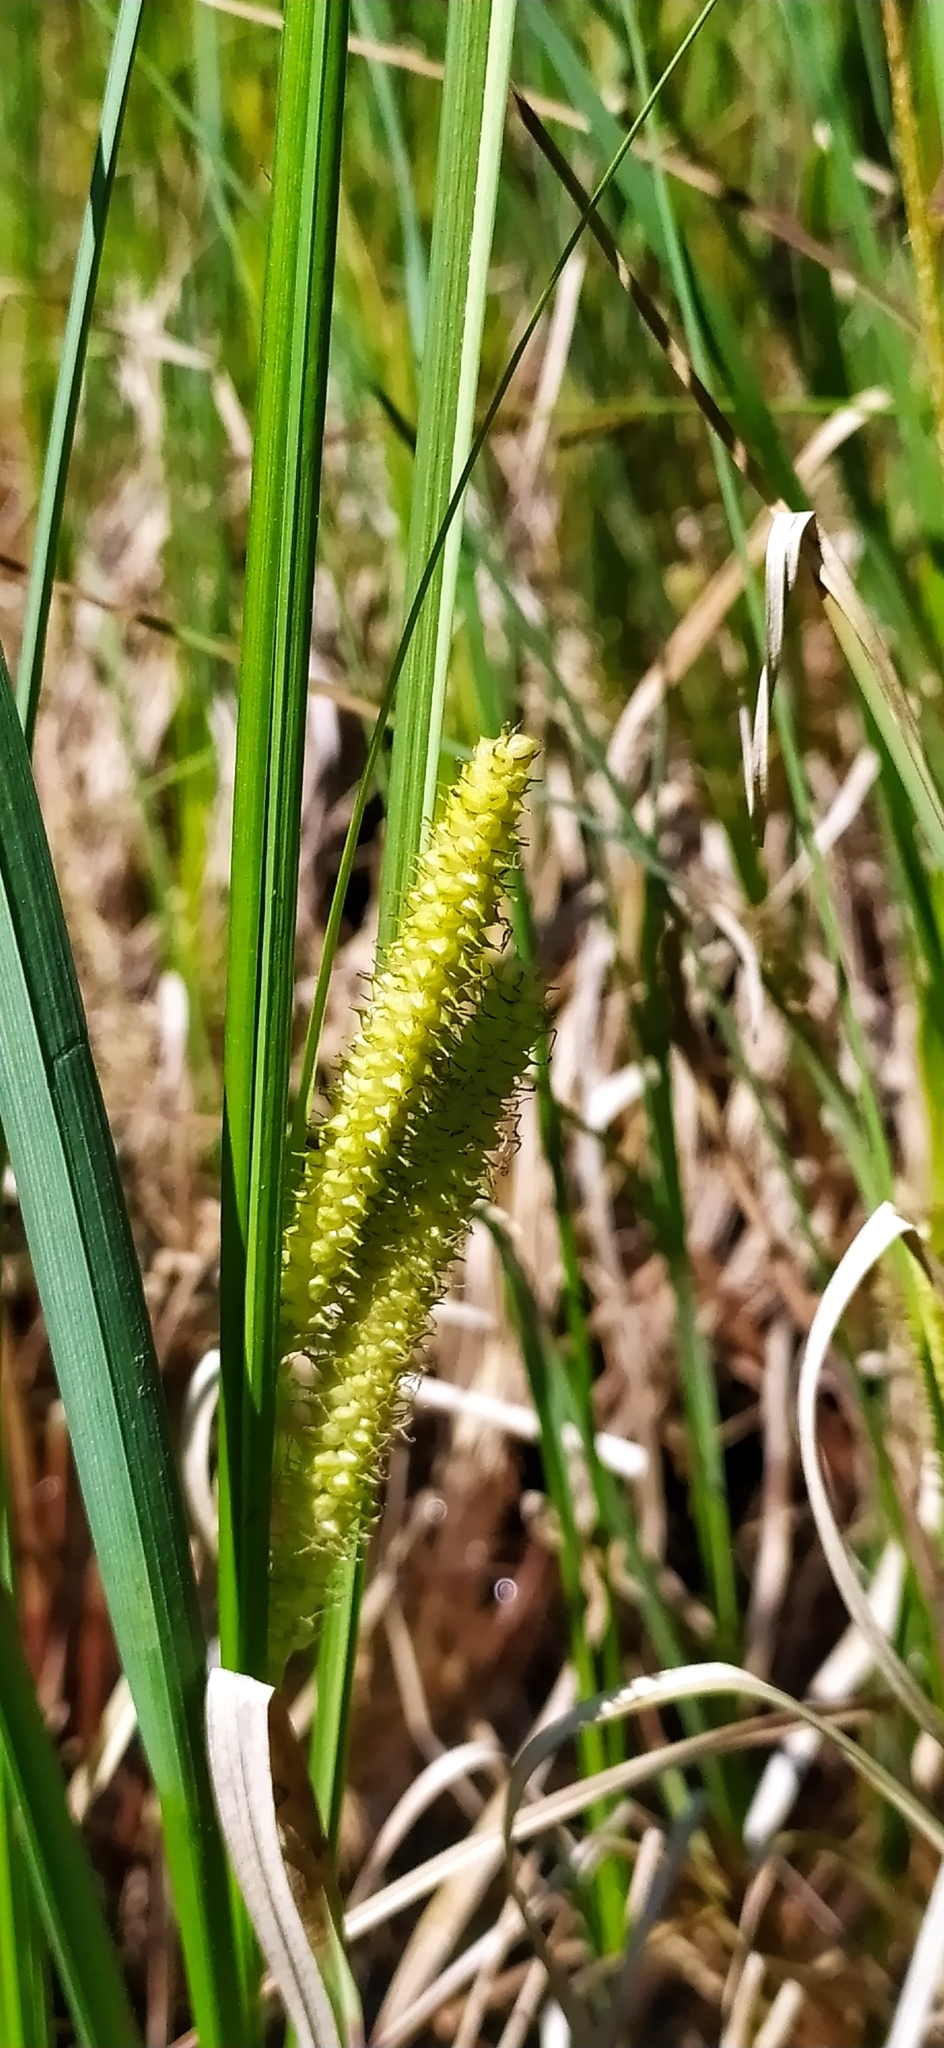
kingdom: Plantae
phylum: Tracheophyta
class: Liliopsida
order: Poales
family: Cyperaceae
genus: Carex
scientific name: Carex rostrata
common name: Bottle sedge
